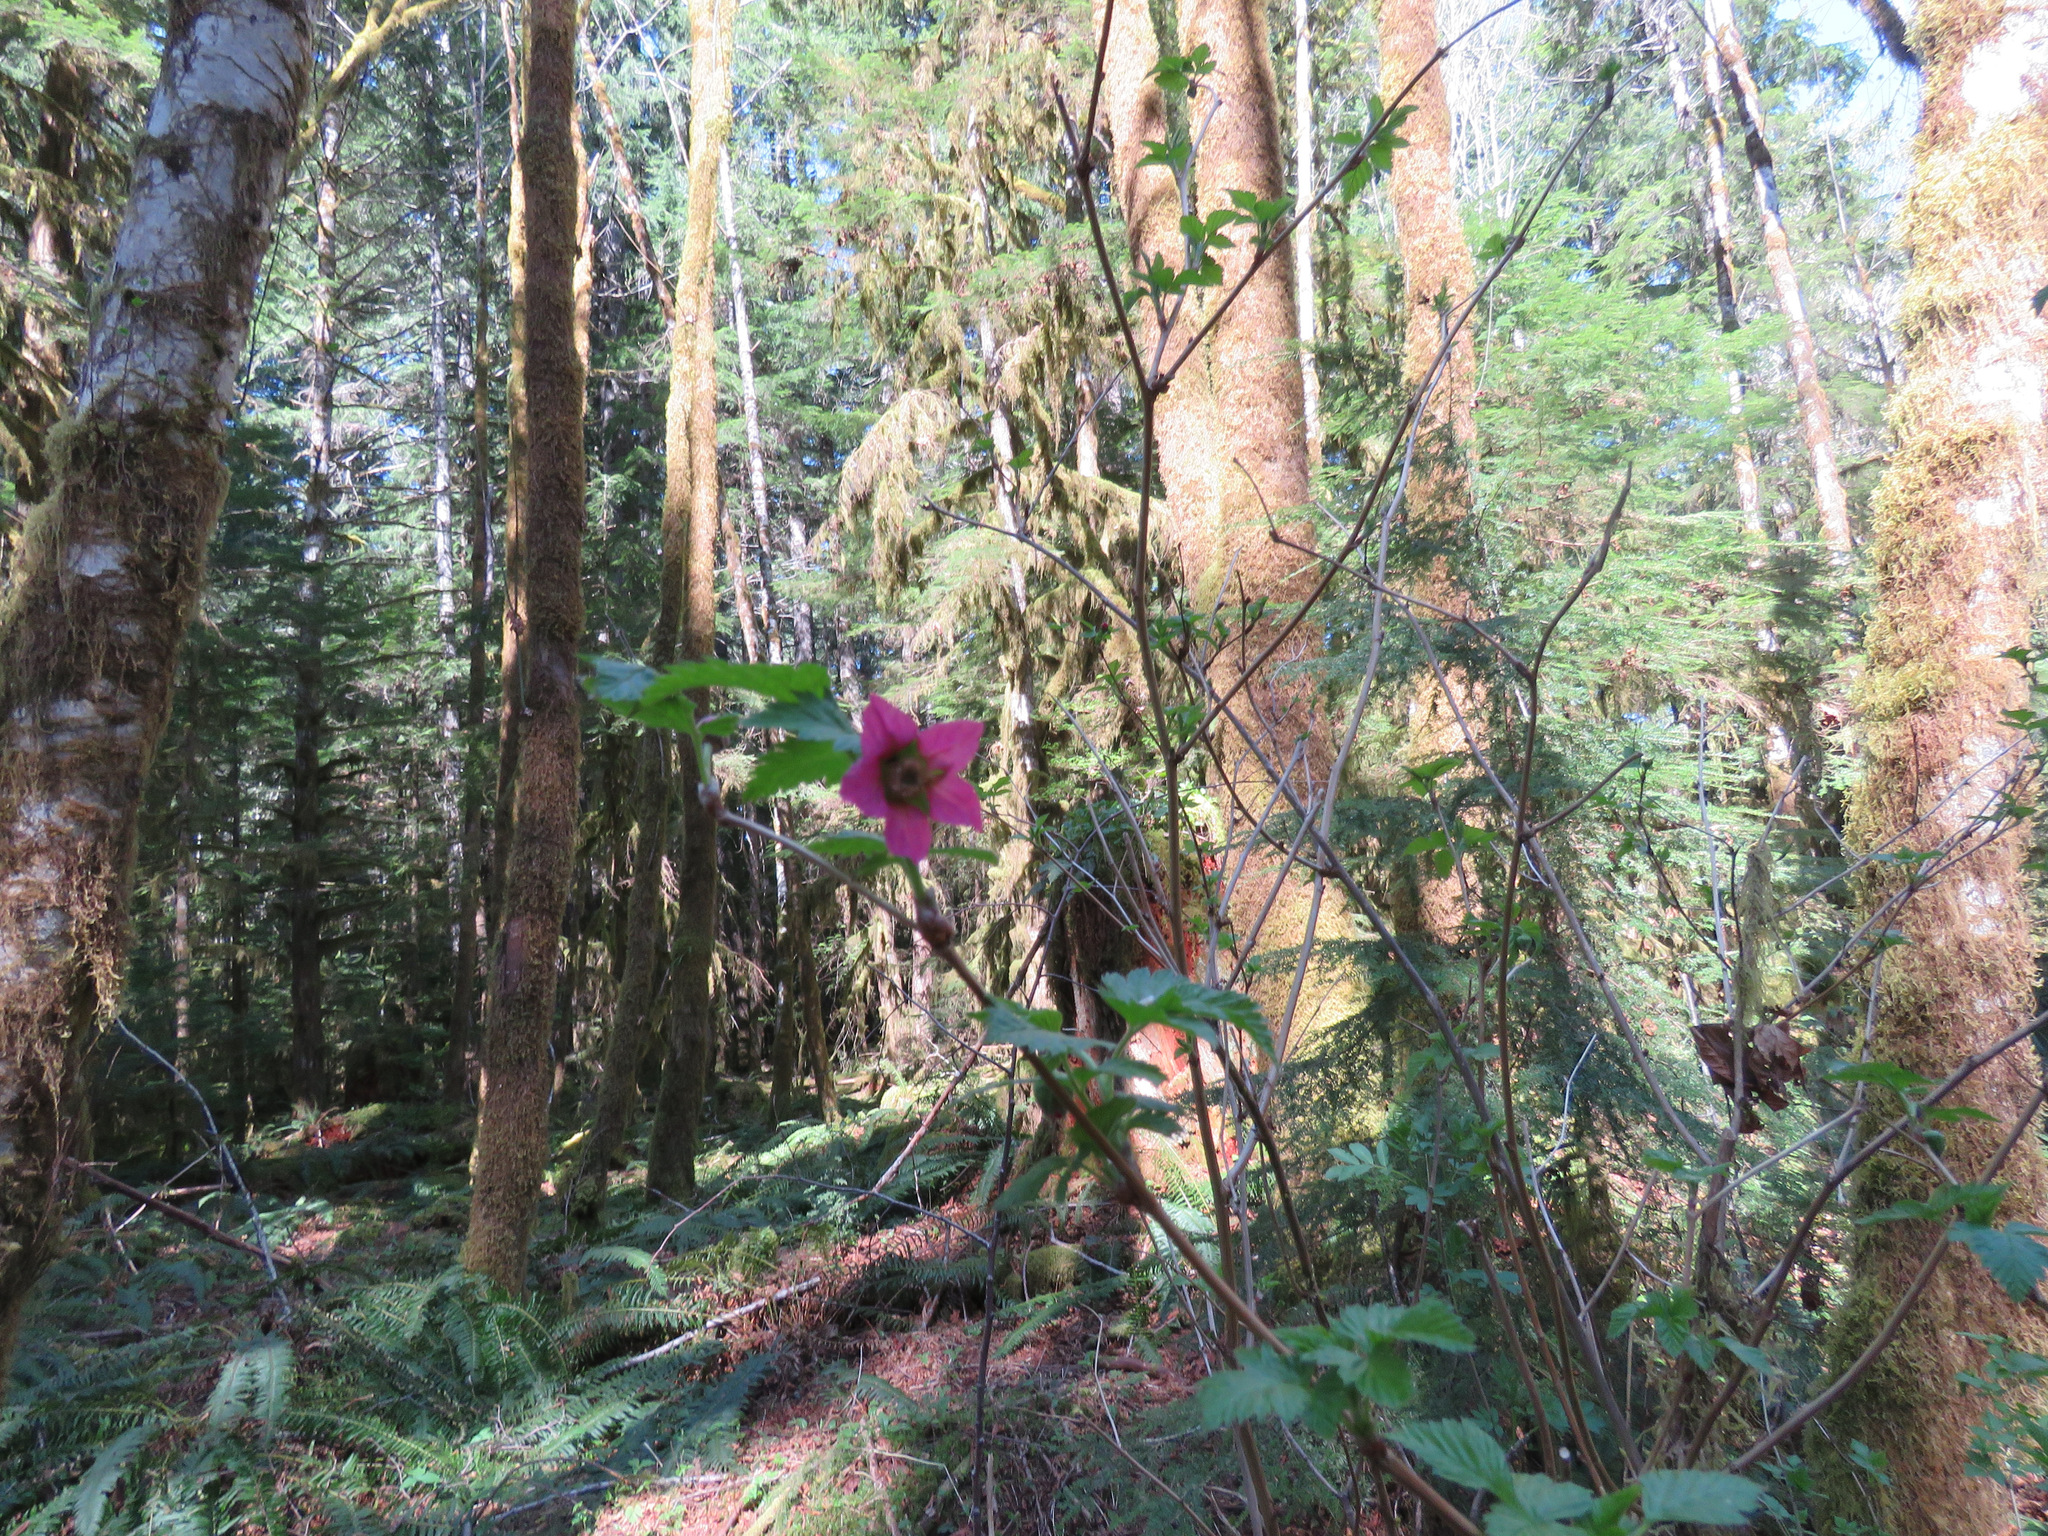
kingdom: Plantae
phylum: Tracheophyta
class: Magnoliopsida
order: Rosales
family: Rosaceae
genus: Rubus
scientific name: Rubus spectabilis
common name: Salmonberry
